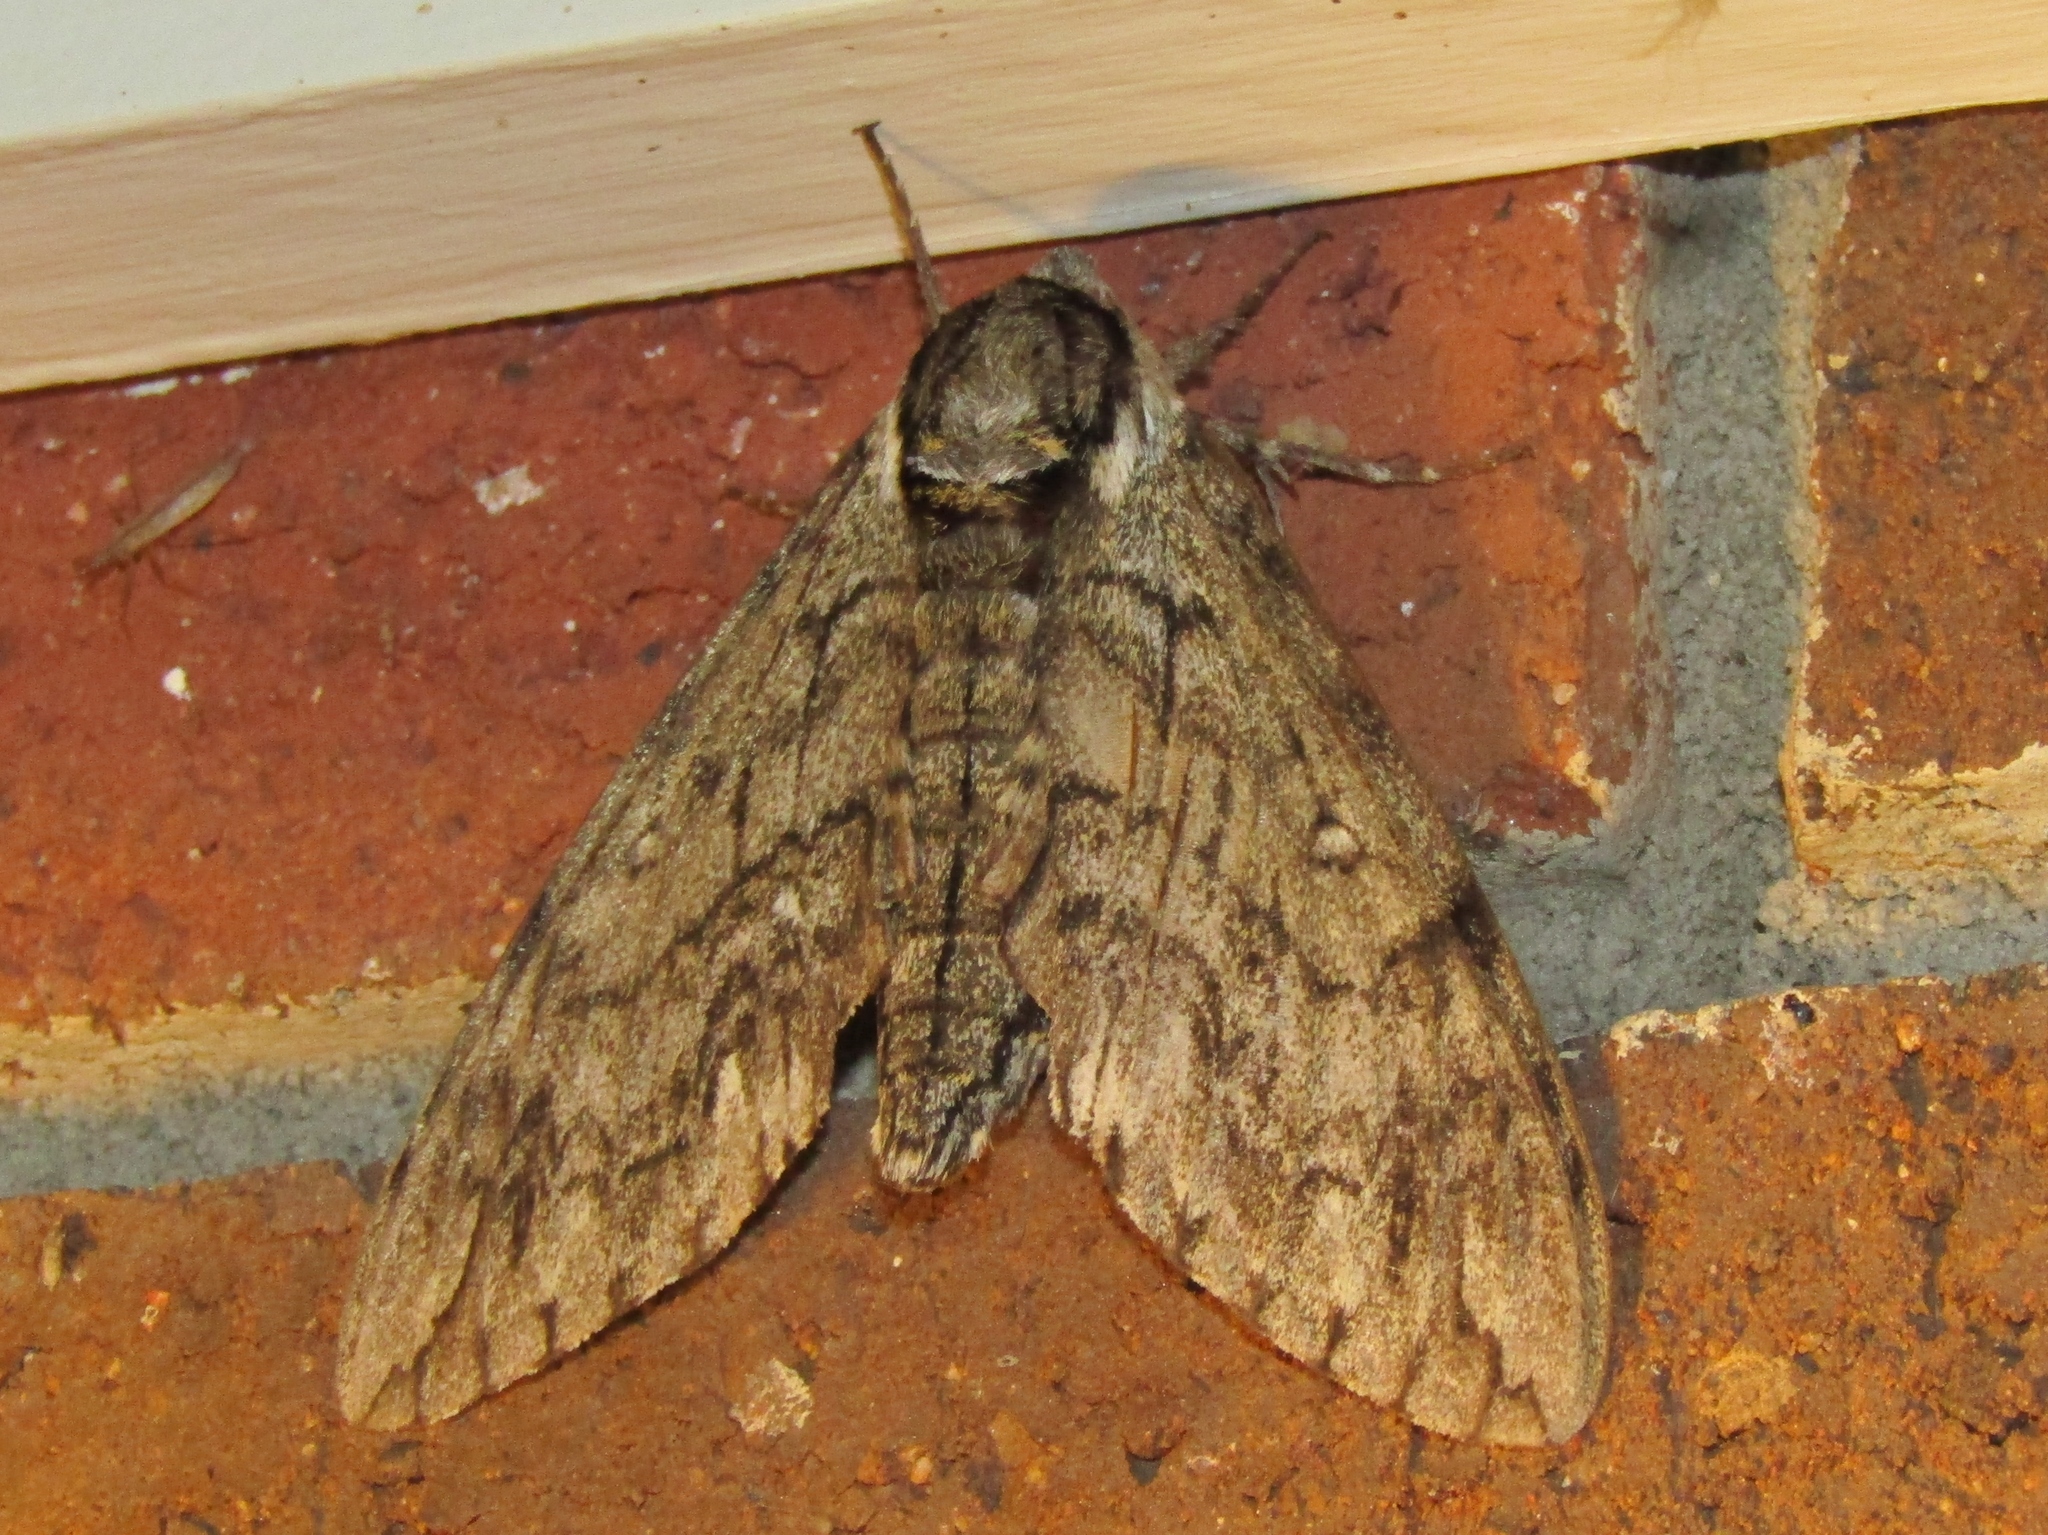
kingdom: Animalia
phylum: Arthropoda
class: Insecta
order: Lepidoptera
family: Sphingidae
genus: Ceratomia
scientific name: Ceratomia undulosa
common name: Waved sphinx
